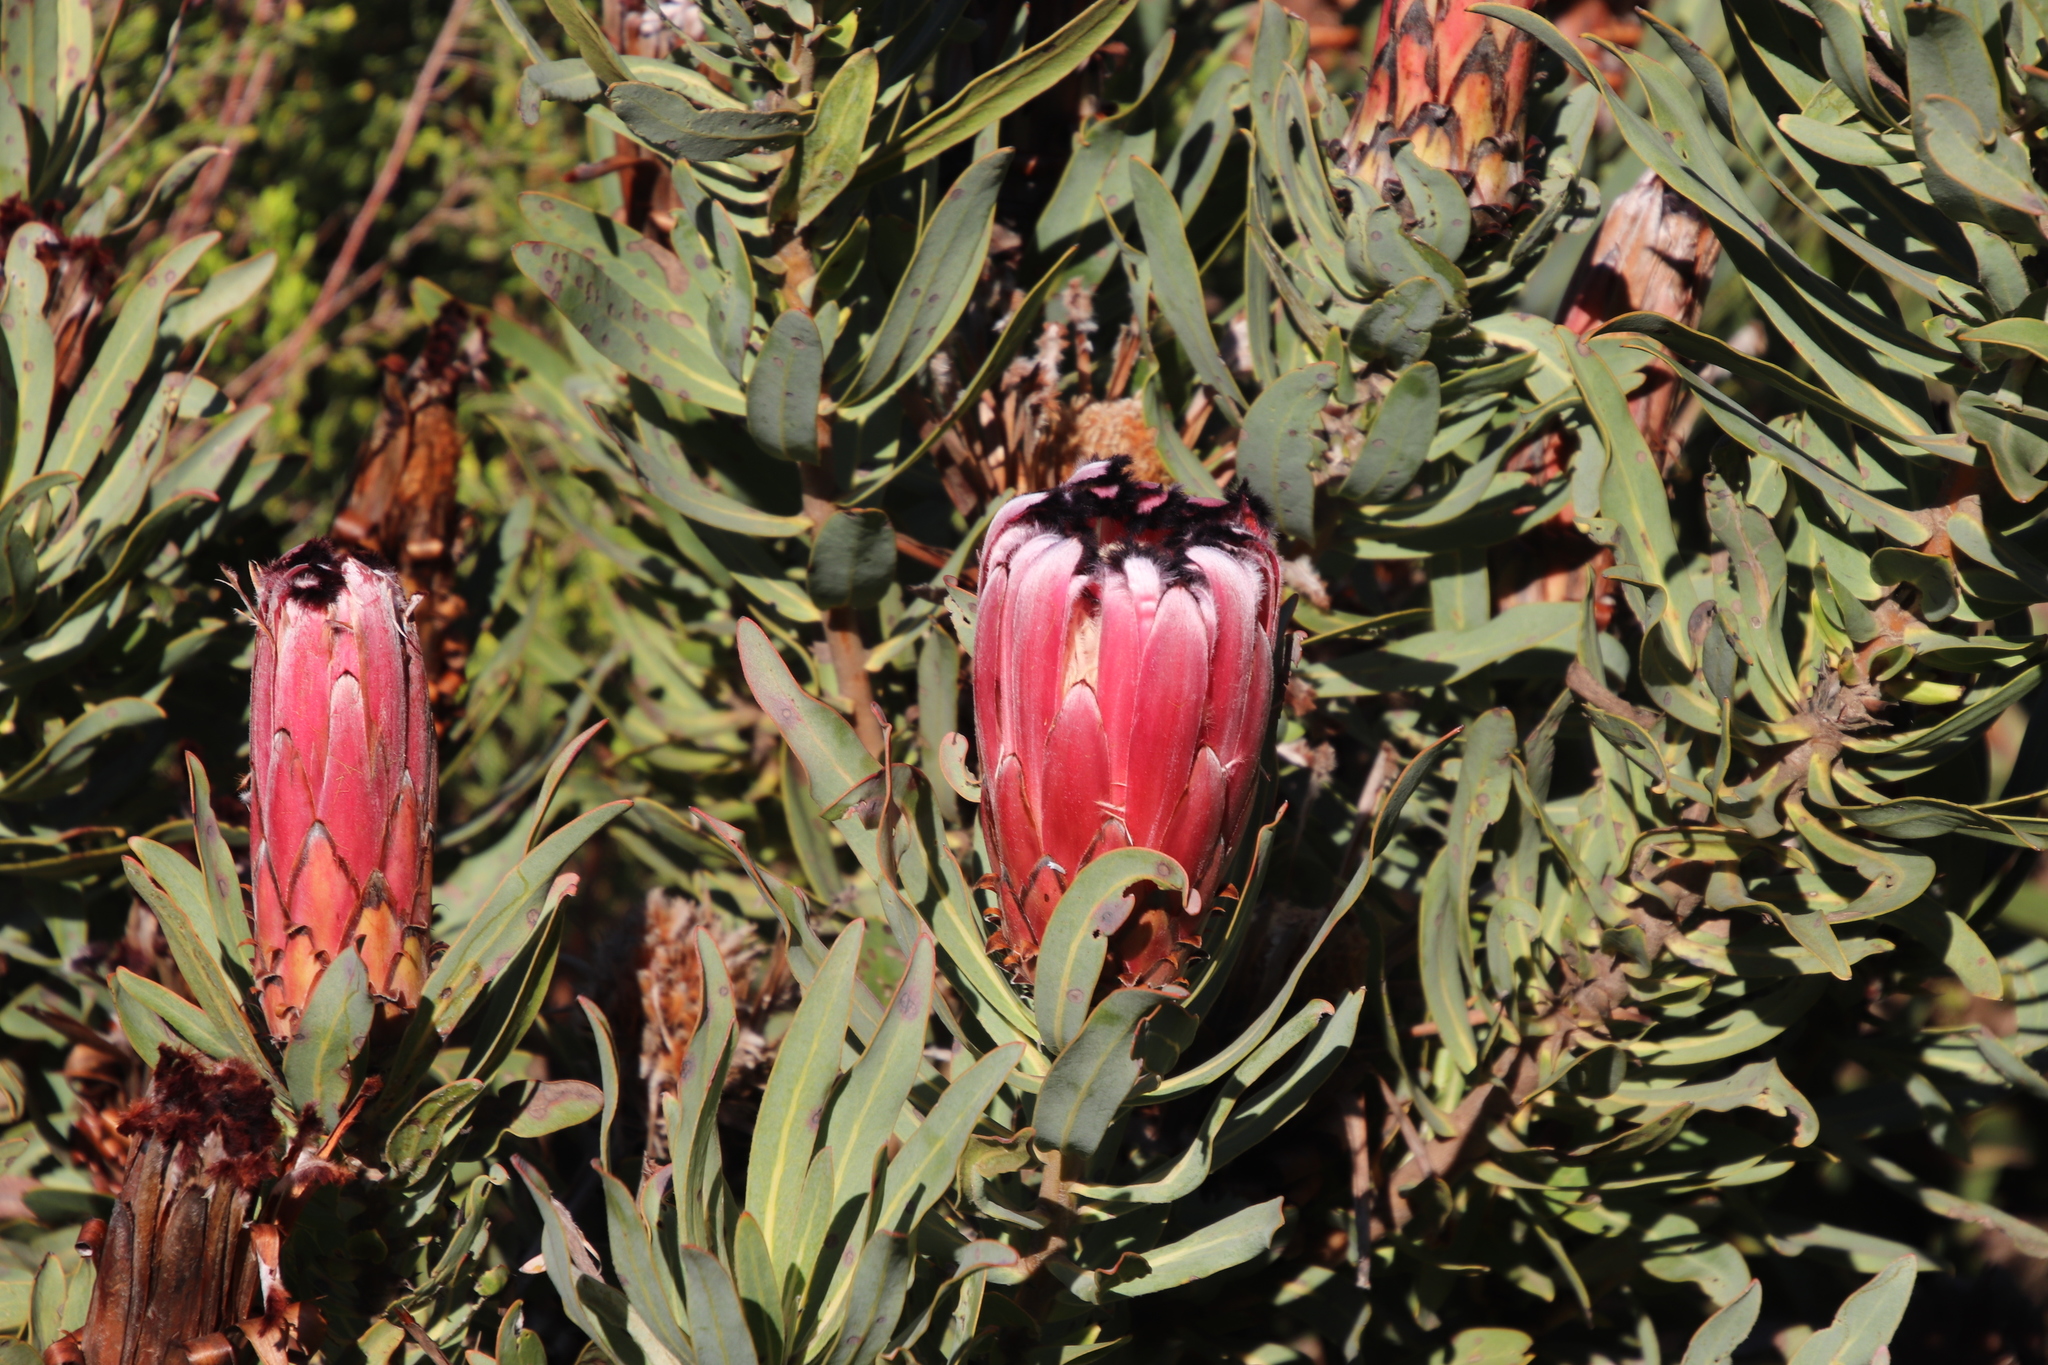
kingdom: Plantae
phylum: Tracheophyta
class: Magnoliopsida
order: Proteales
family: Proteaceae
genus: Protea
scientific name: Protea
